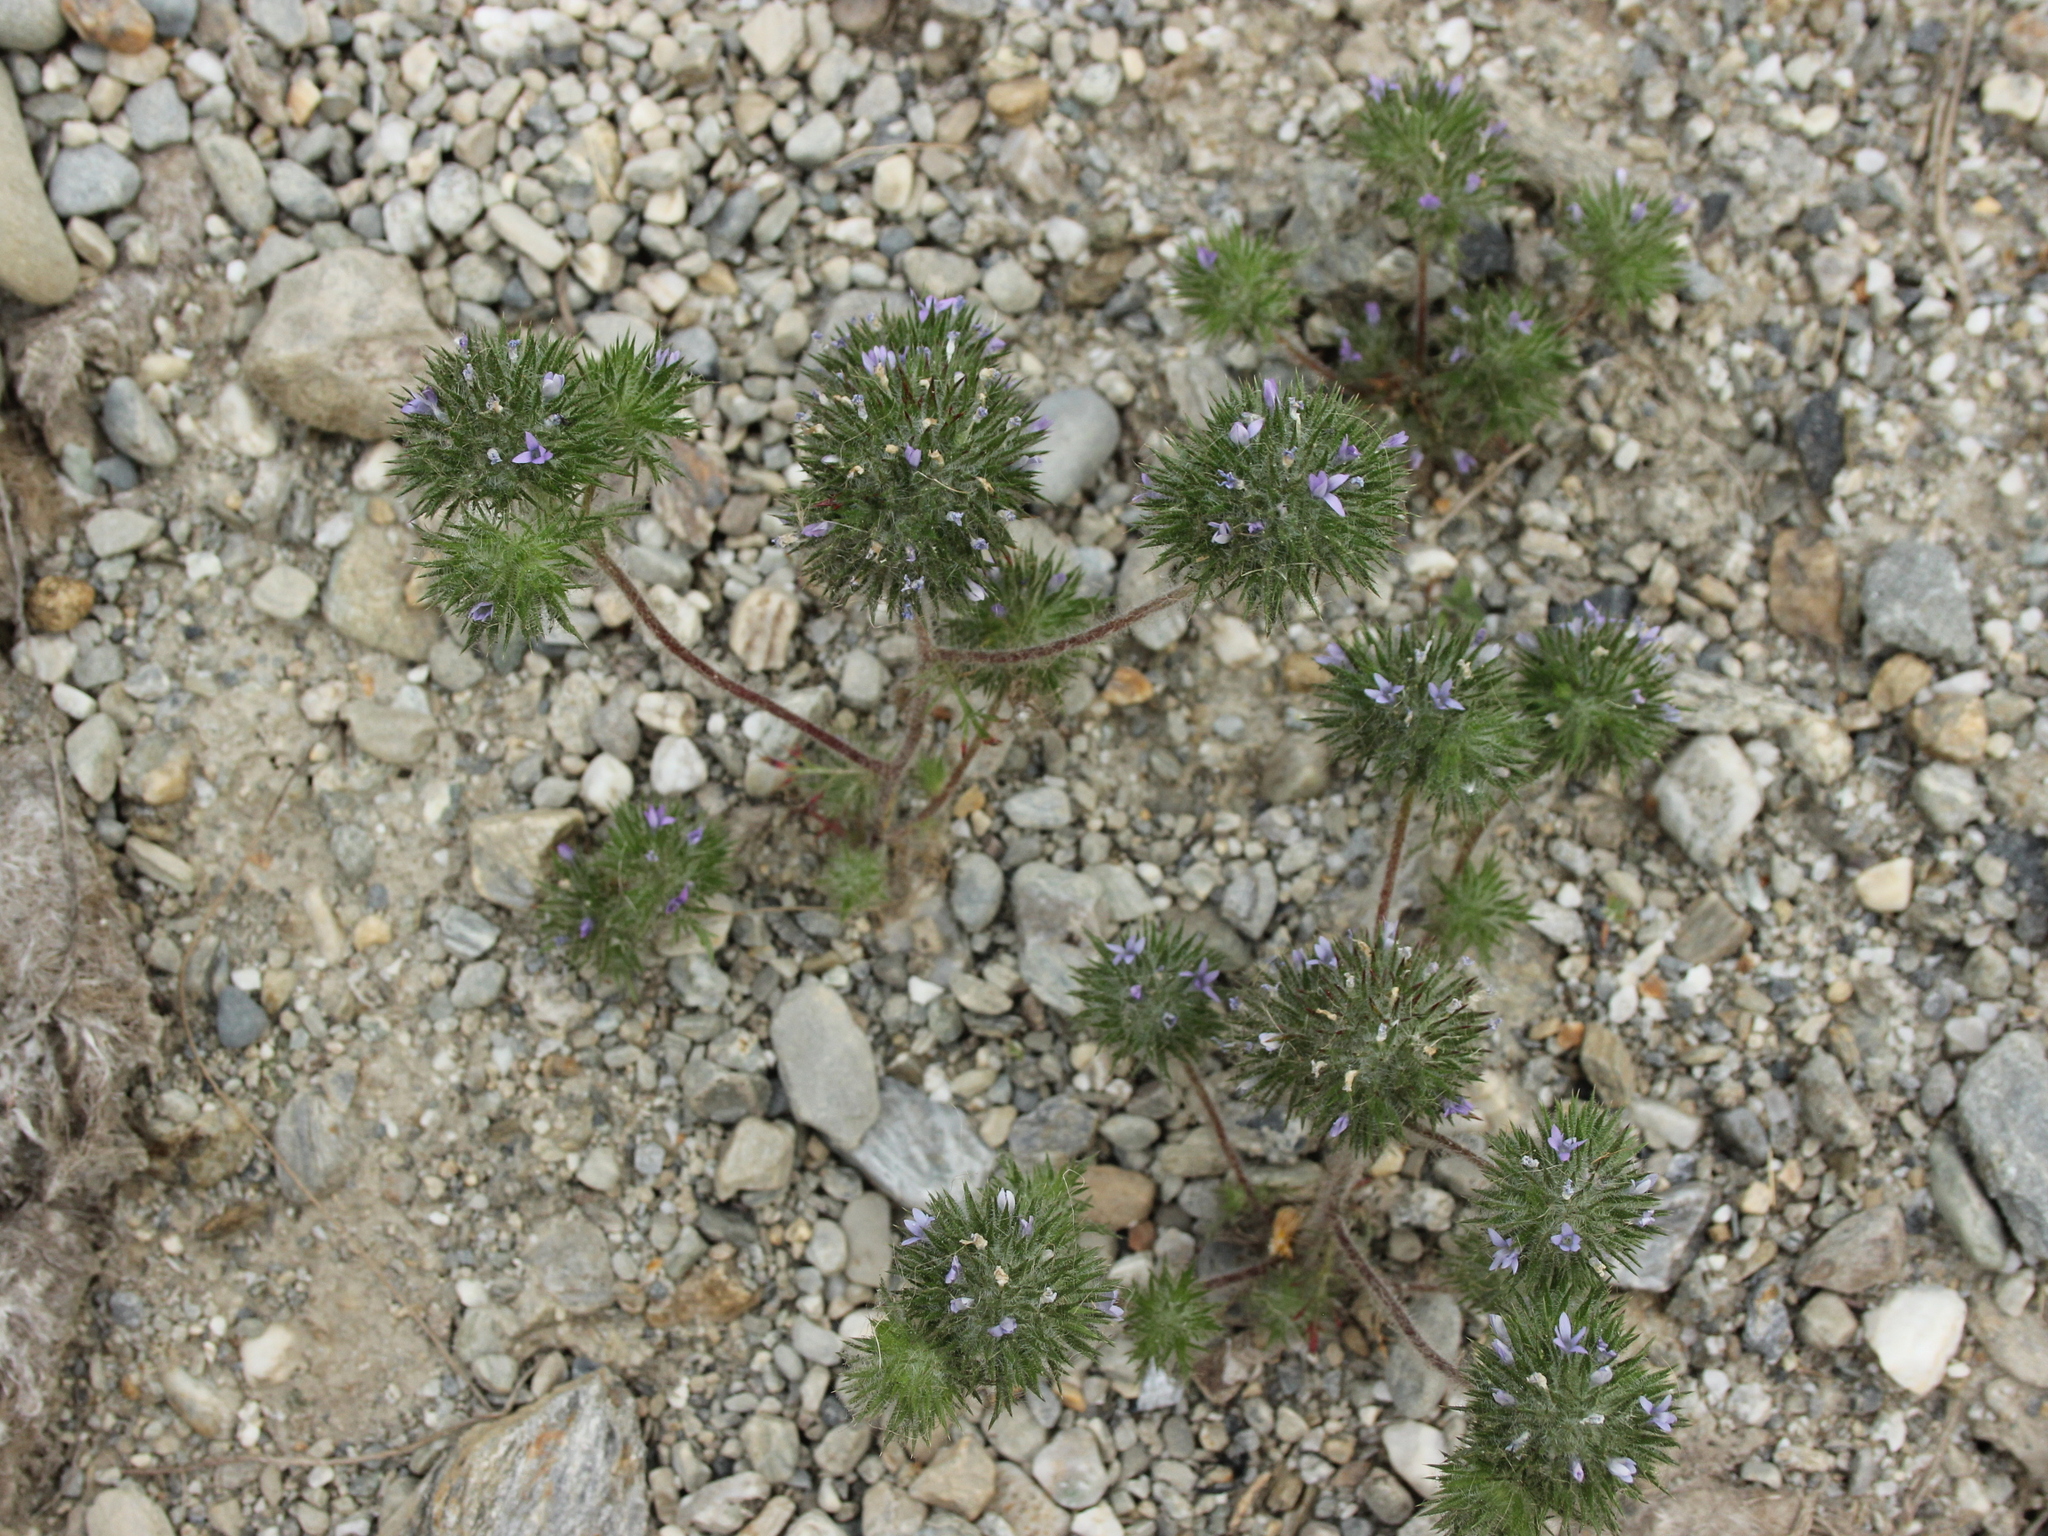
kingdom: Plantae
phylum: Tracheophyta
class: Magnoliopsida
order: Ericales
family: Polemoniaceae
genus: Navarretia
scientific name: Navarretia squarrosa
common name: Skunkweed
